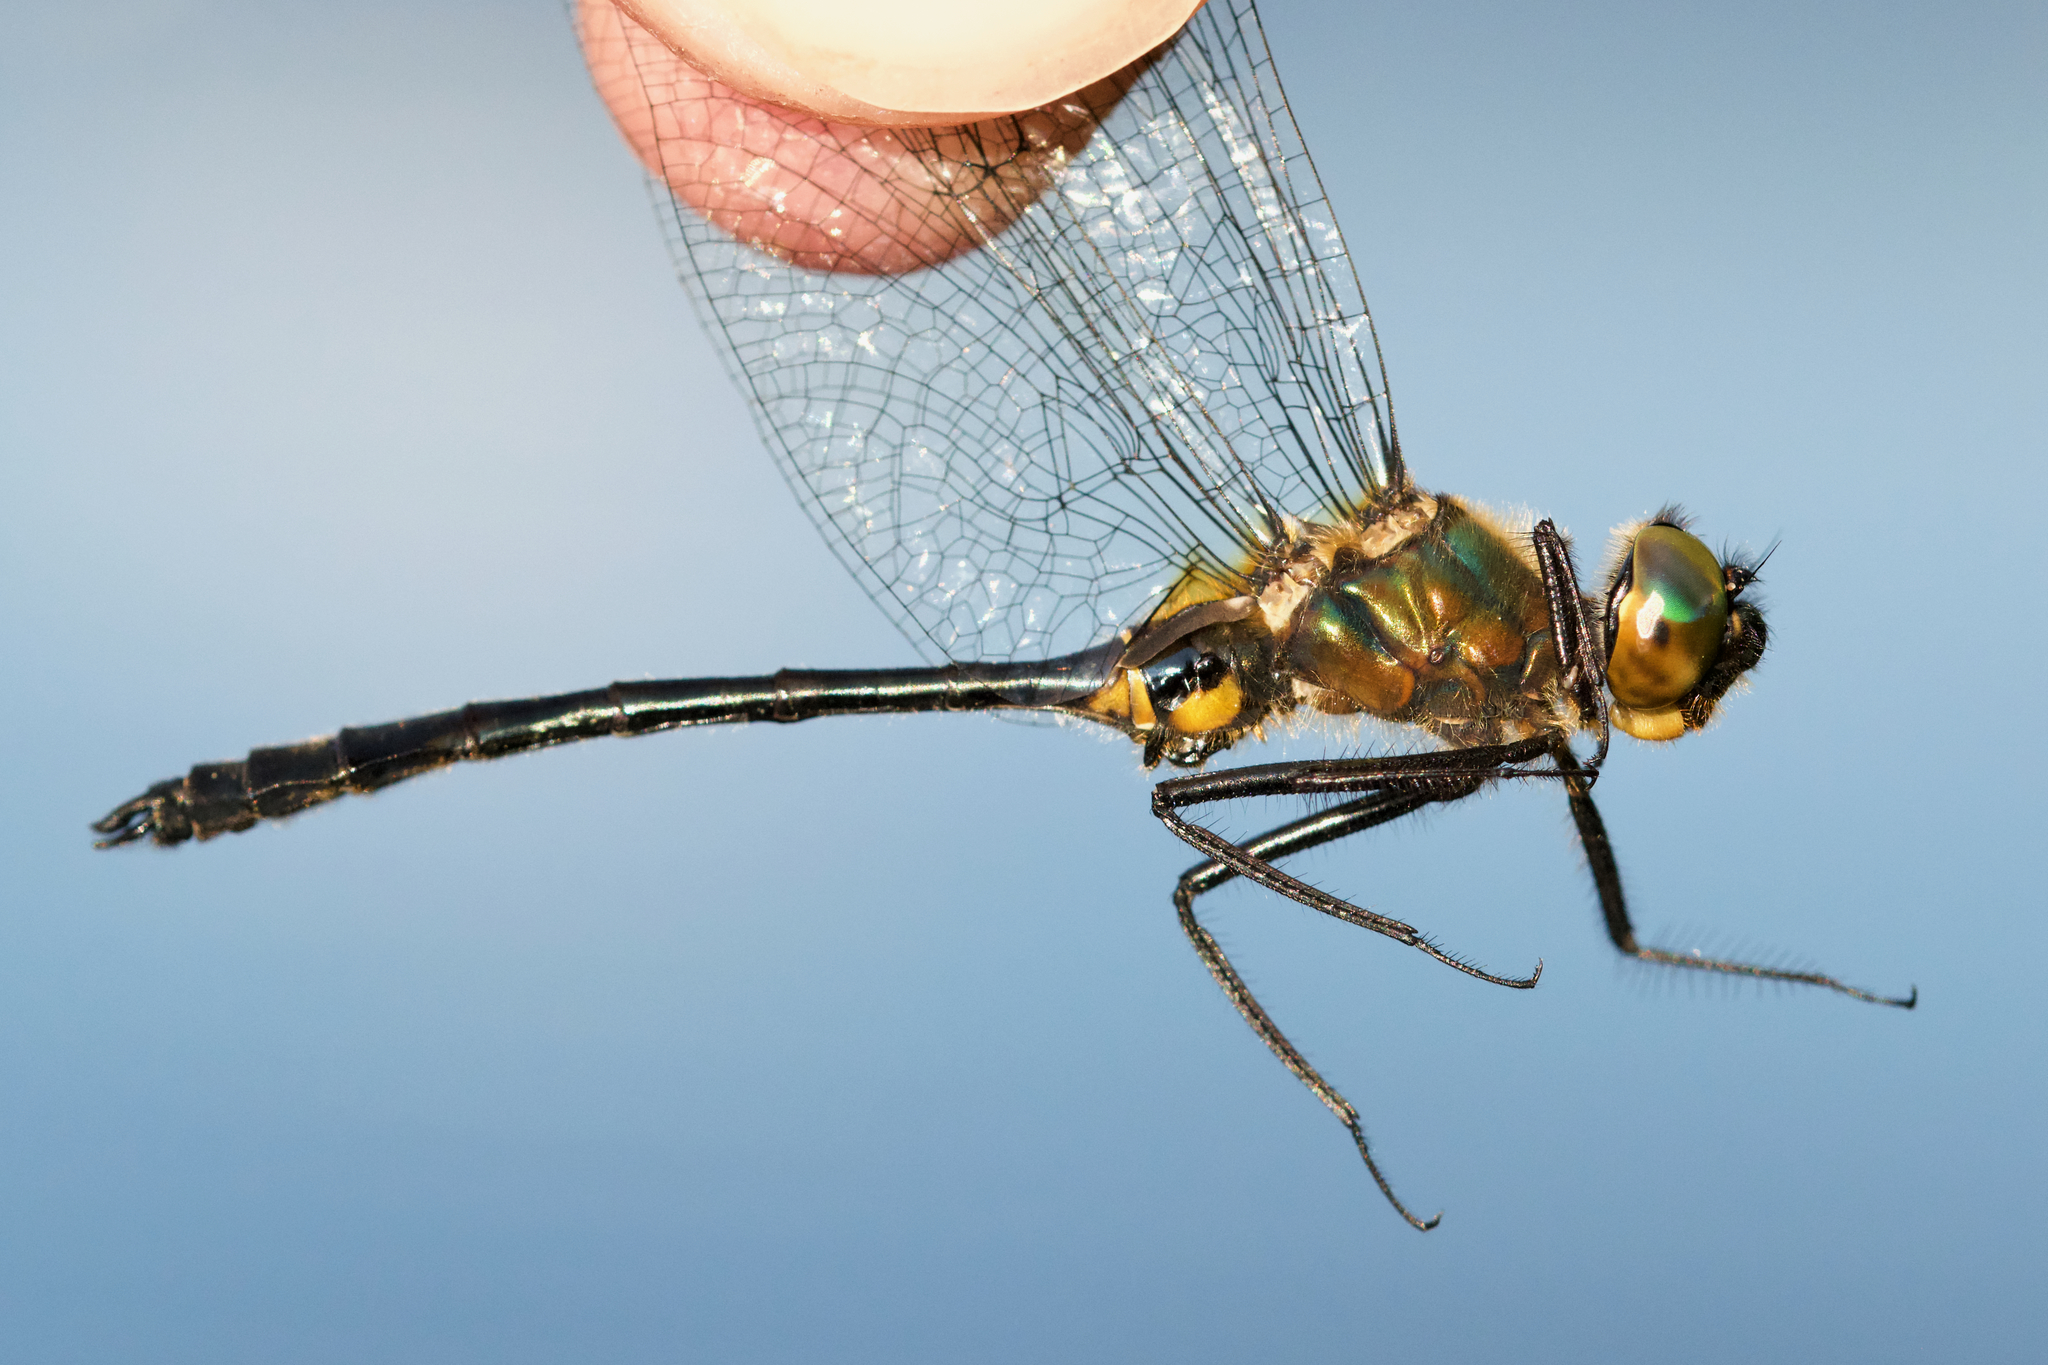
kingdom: Animalia
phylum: Arthropoda
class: Insecta
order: Odonata
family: Corduliidae
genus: Dorocordulia
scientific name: Dorocordulia libera
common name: Racket-tailed emerald
